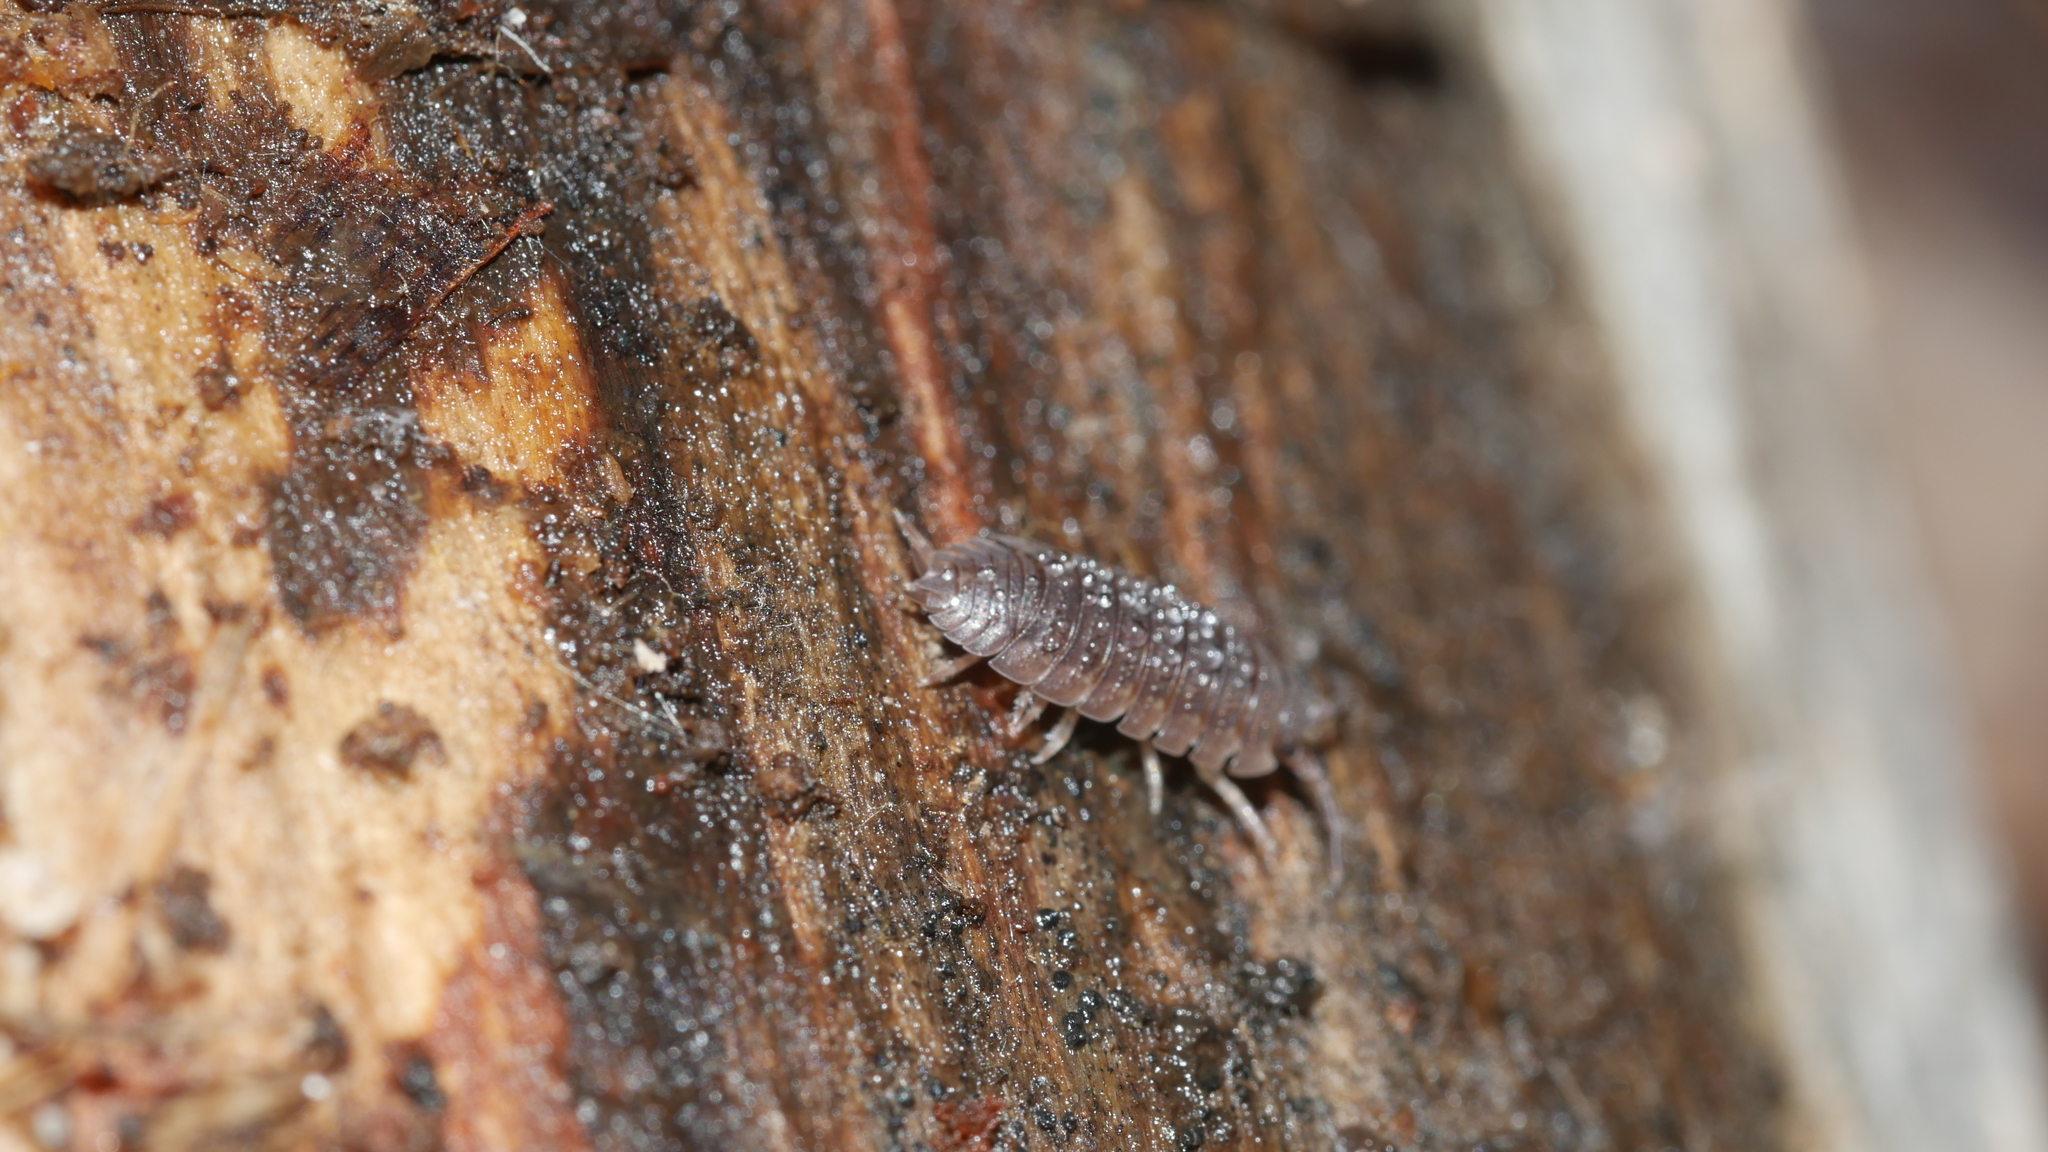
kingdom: Animalia
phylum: Arthropoda
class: Malacostraca
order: Isopoda
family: Porcellionidae
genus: Porcellio
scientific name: Porcellio scaber
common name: Common rough woodlouse
